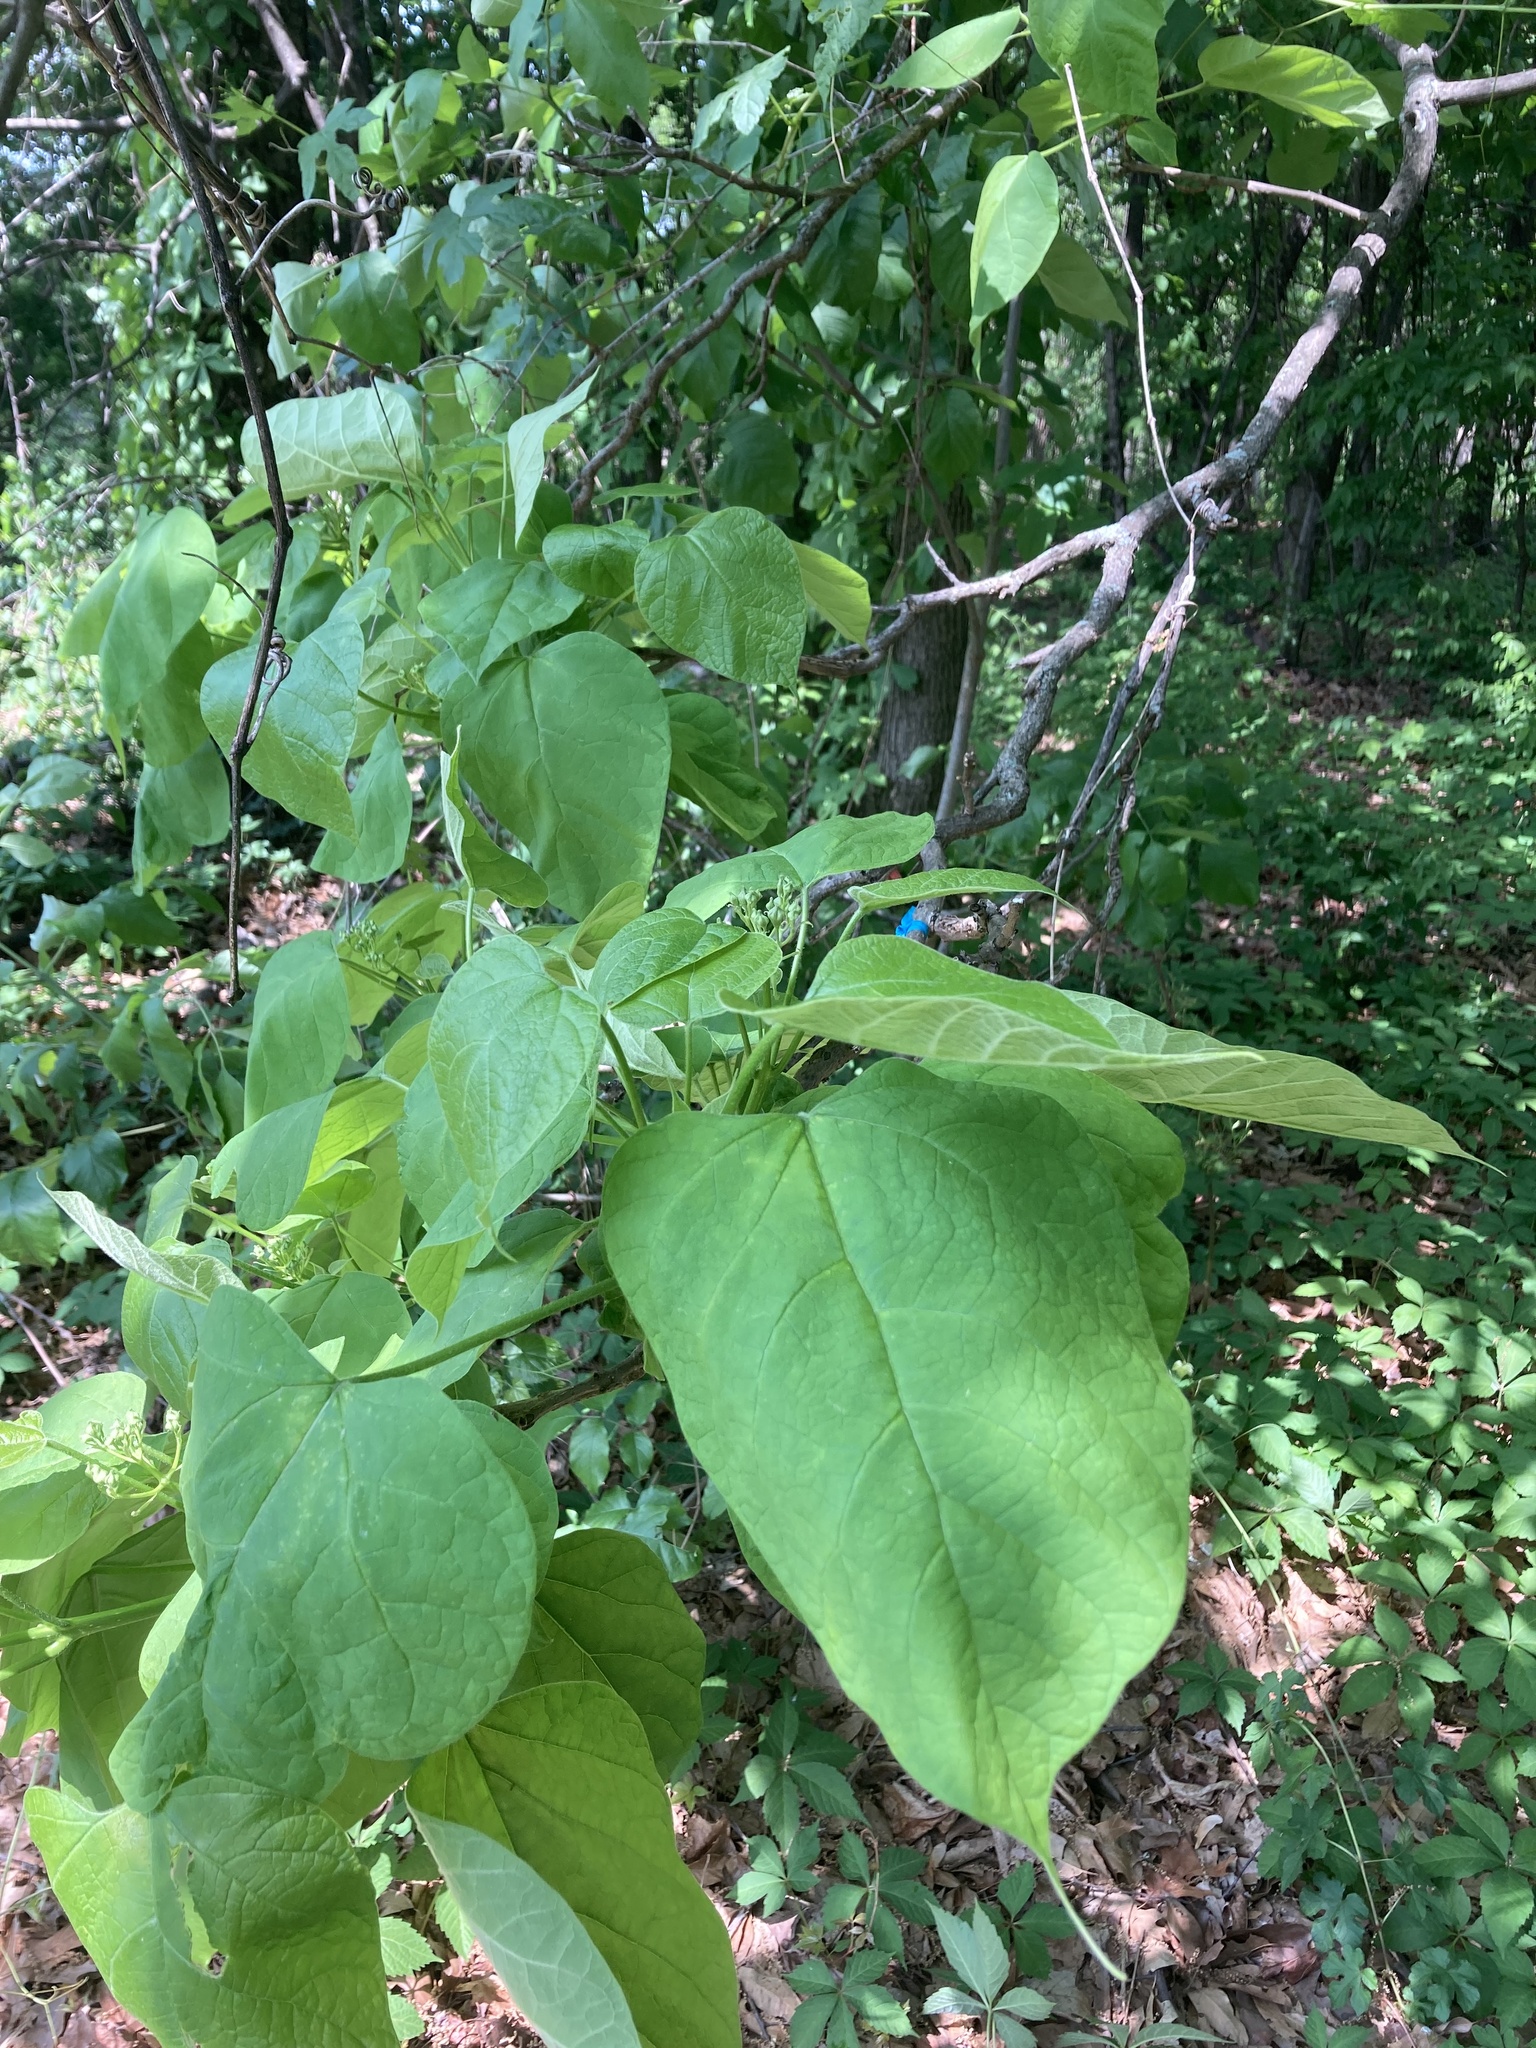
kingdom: Plantae
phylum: Tracheophyta
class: Magnoliopsida
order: Lamiales
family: Bignoniaceae
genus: Catalpa
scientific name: Catalpa speciosa
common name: Northern catalpa
